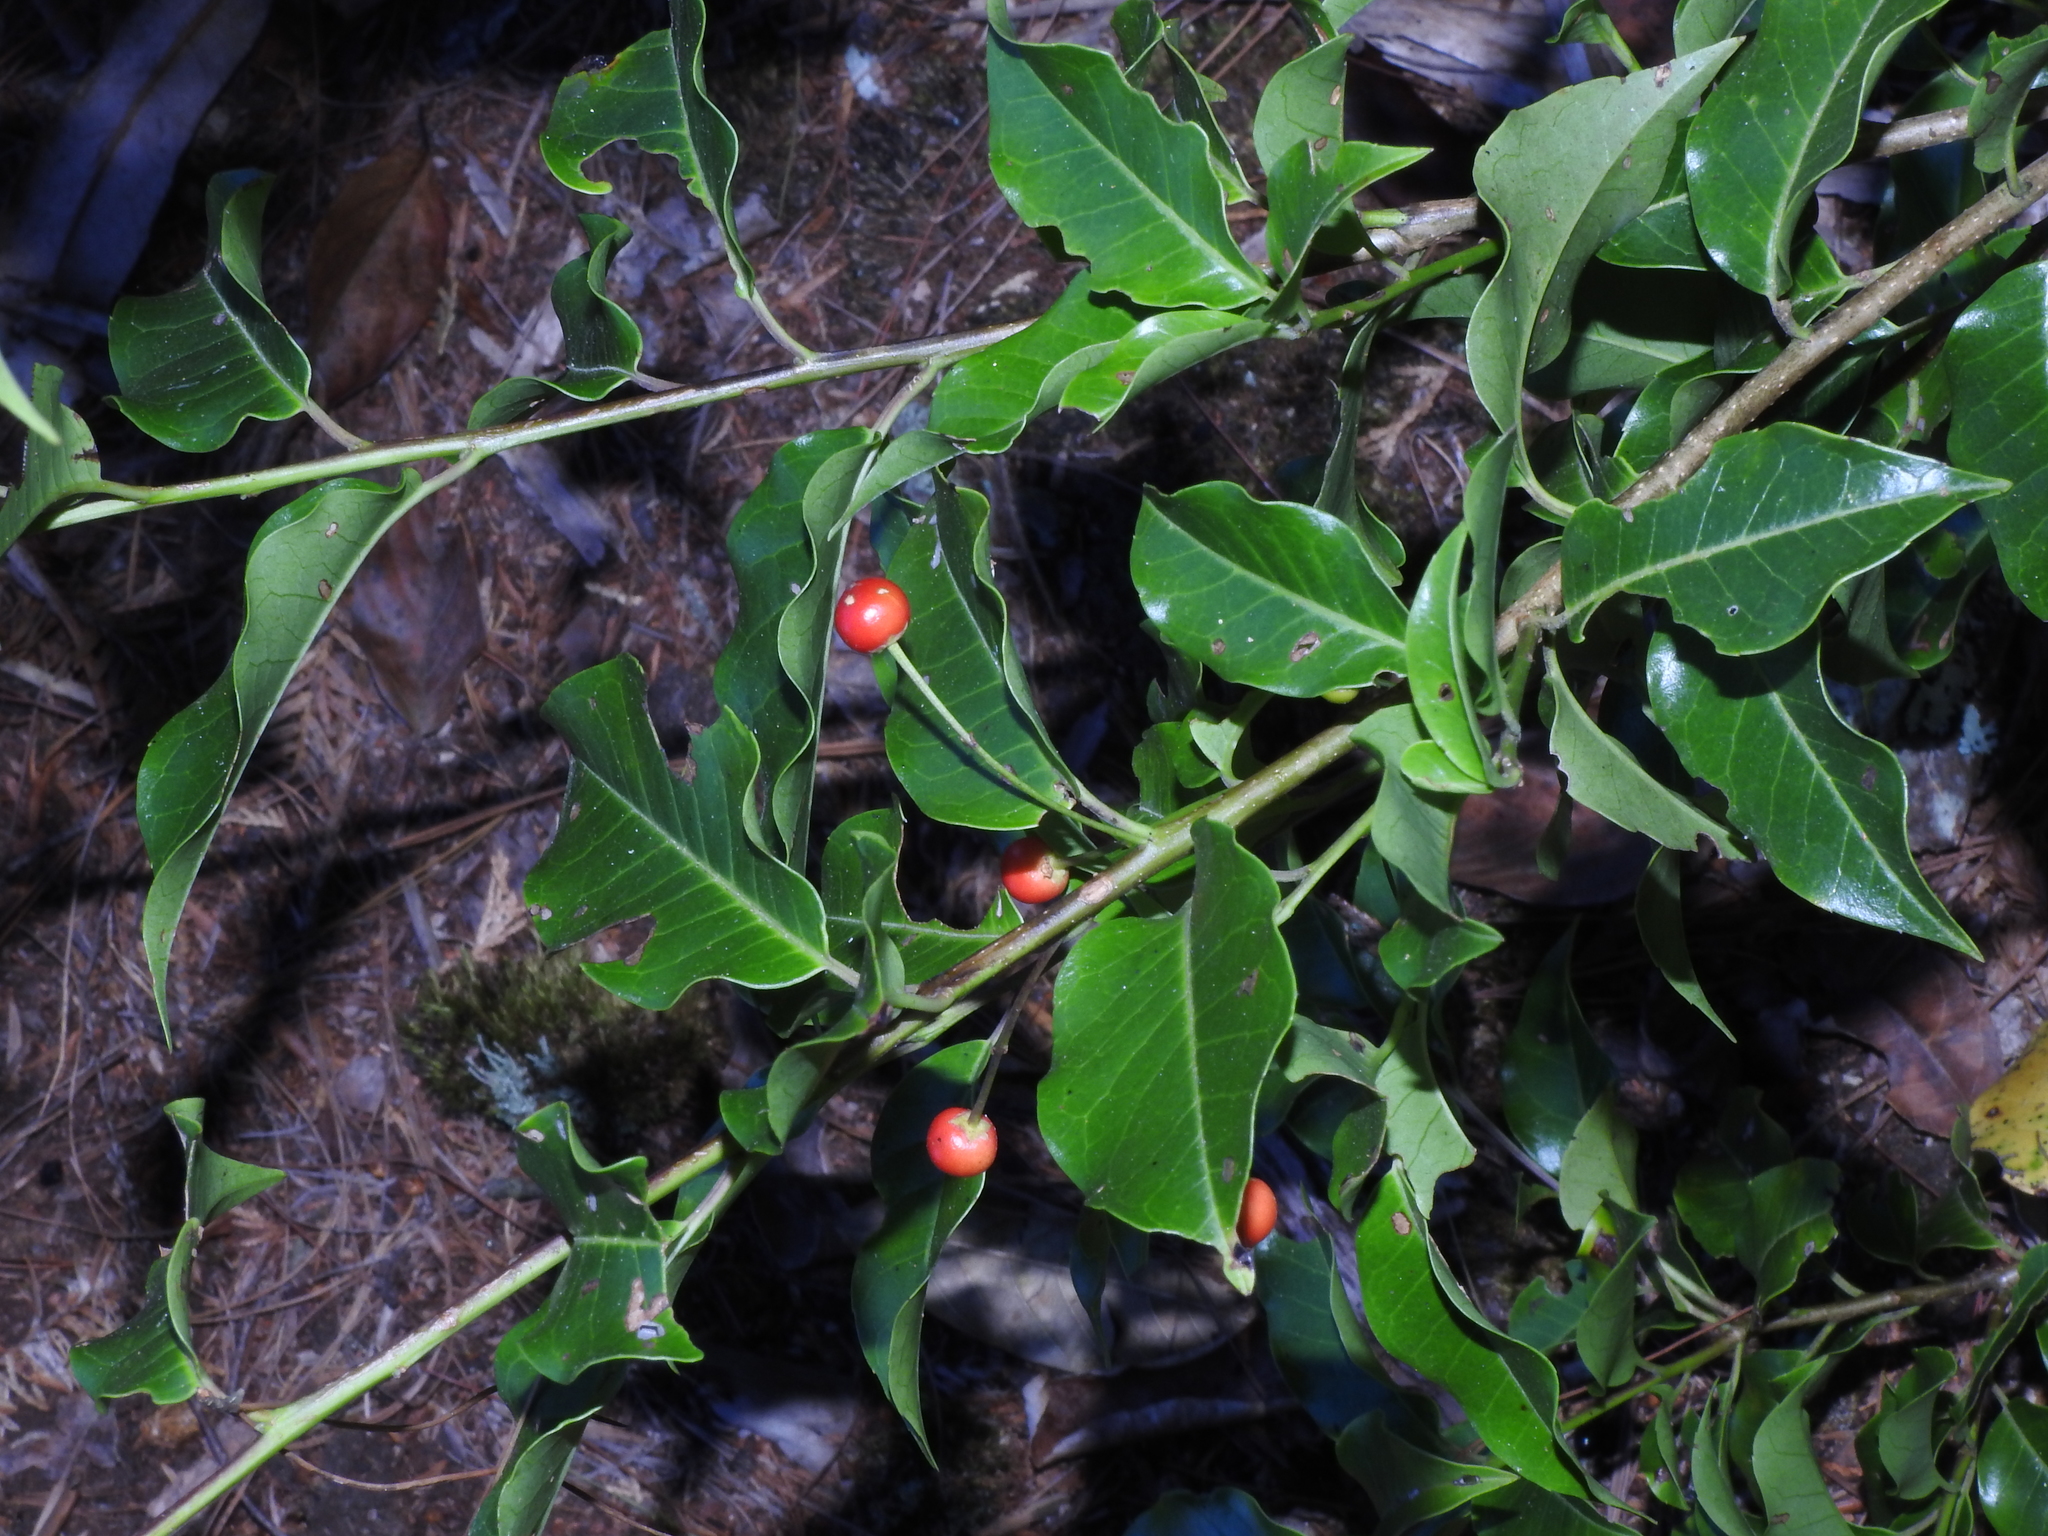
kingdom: Plantae
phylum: Tracheophyta
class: Magnoliopsida
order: Aquifoliales
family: Aquifoliaceae
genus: Ilex
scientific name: Ilex pedunculosa
